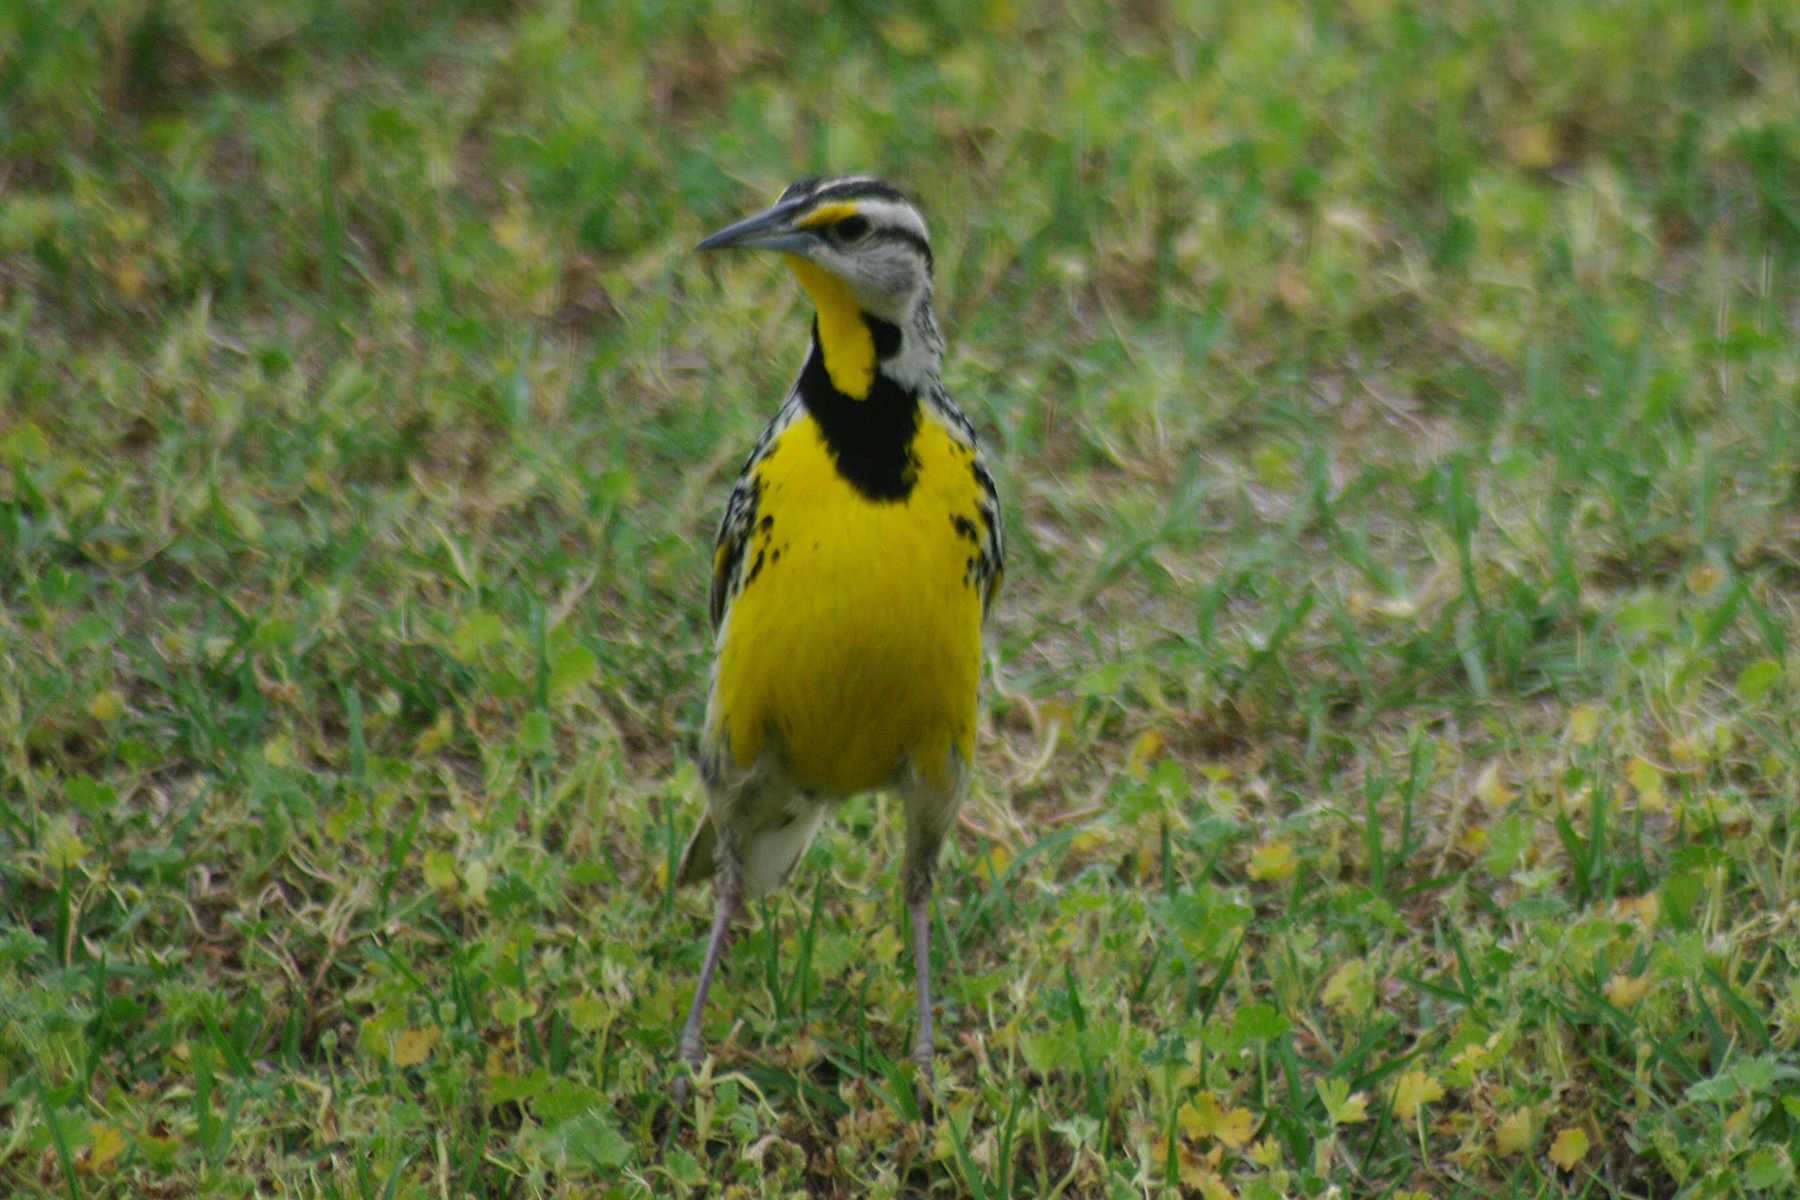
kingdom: Animalia
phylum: Chordata
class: Aves
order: Passeriformes
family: Icteridae
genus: Sturnella
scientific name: Sturnella magna
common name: Eastern meadowlark
